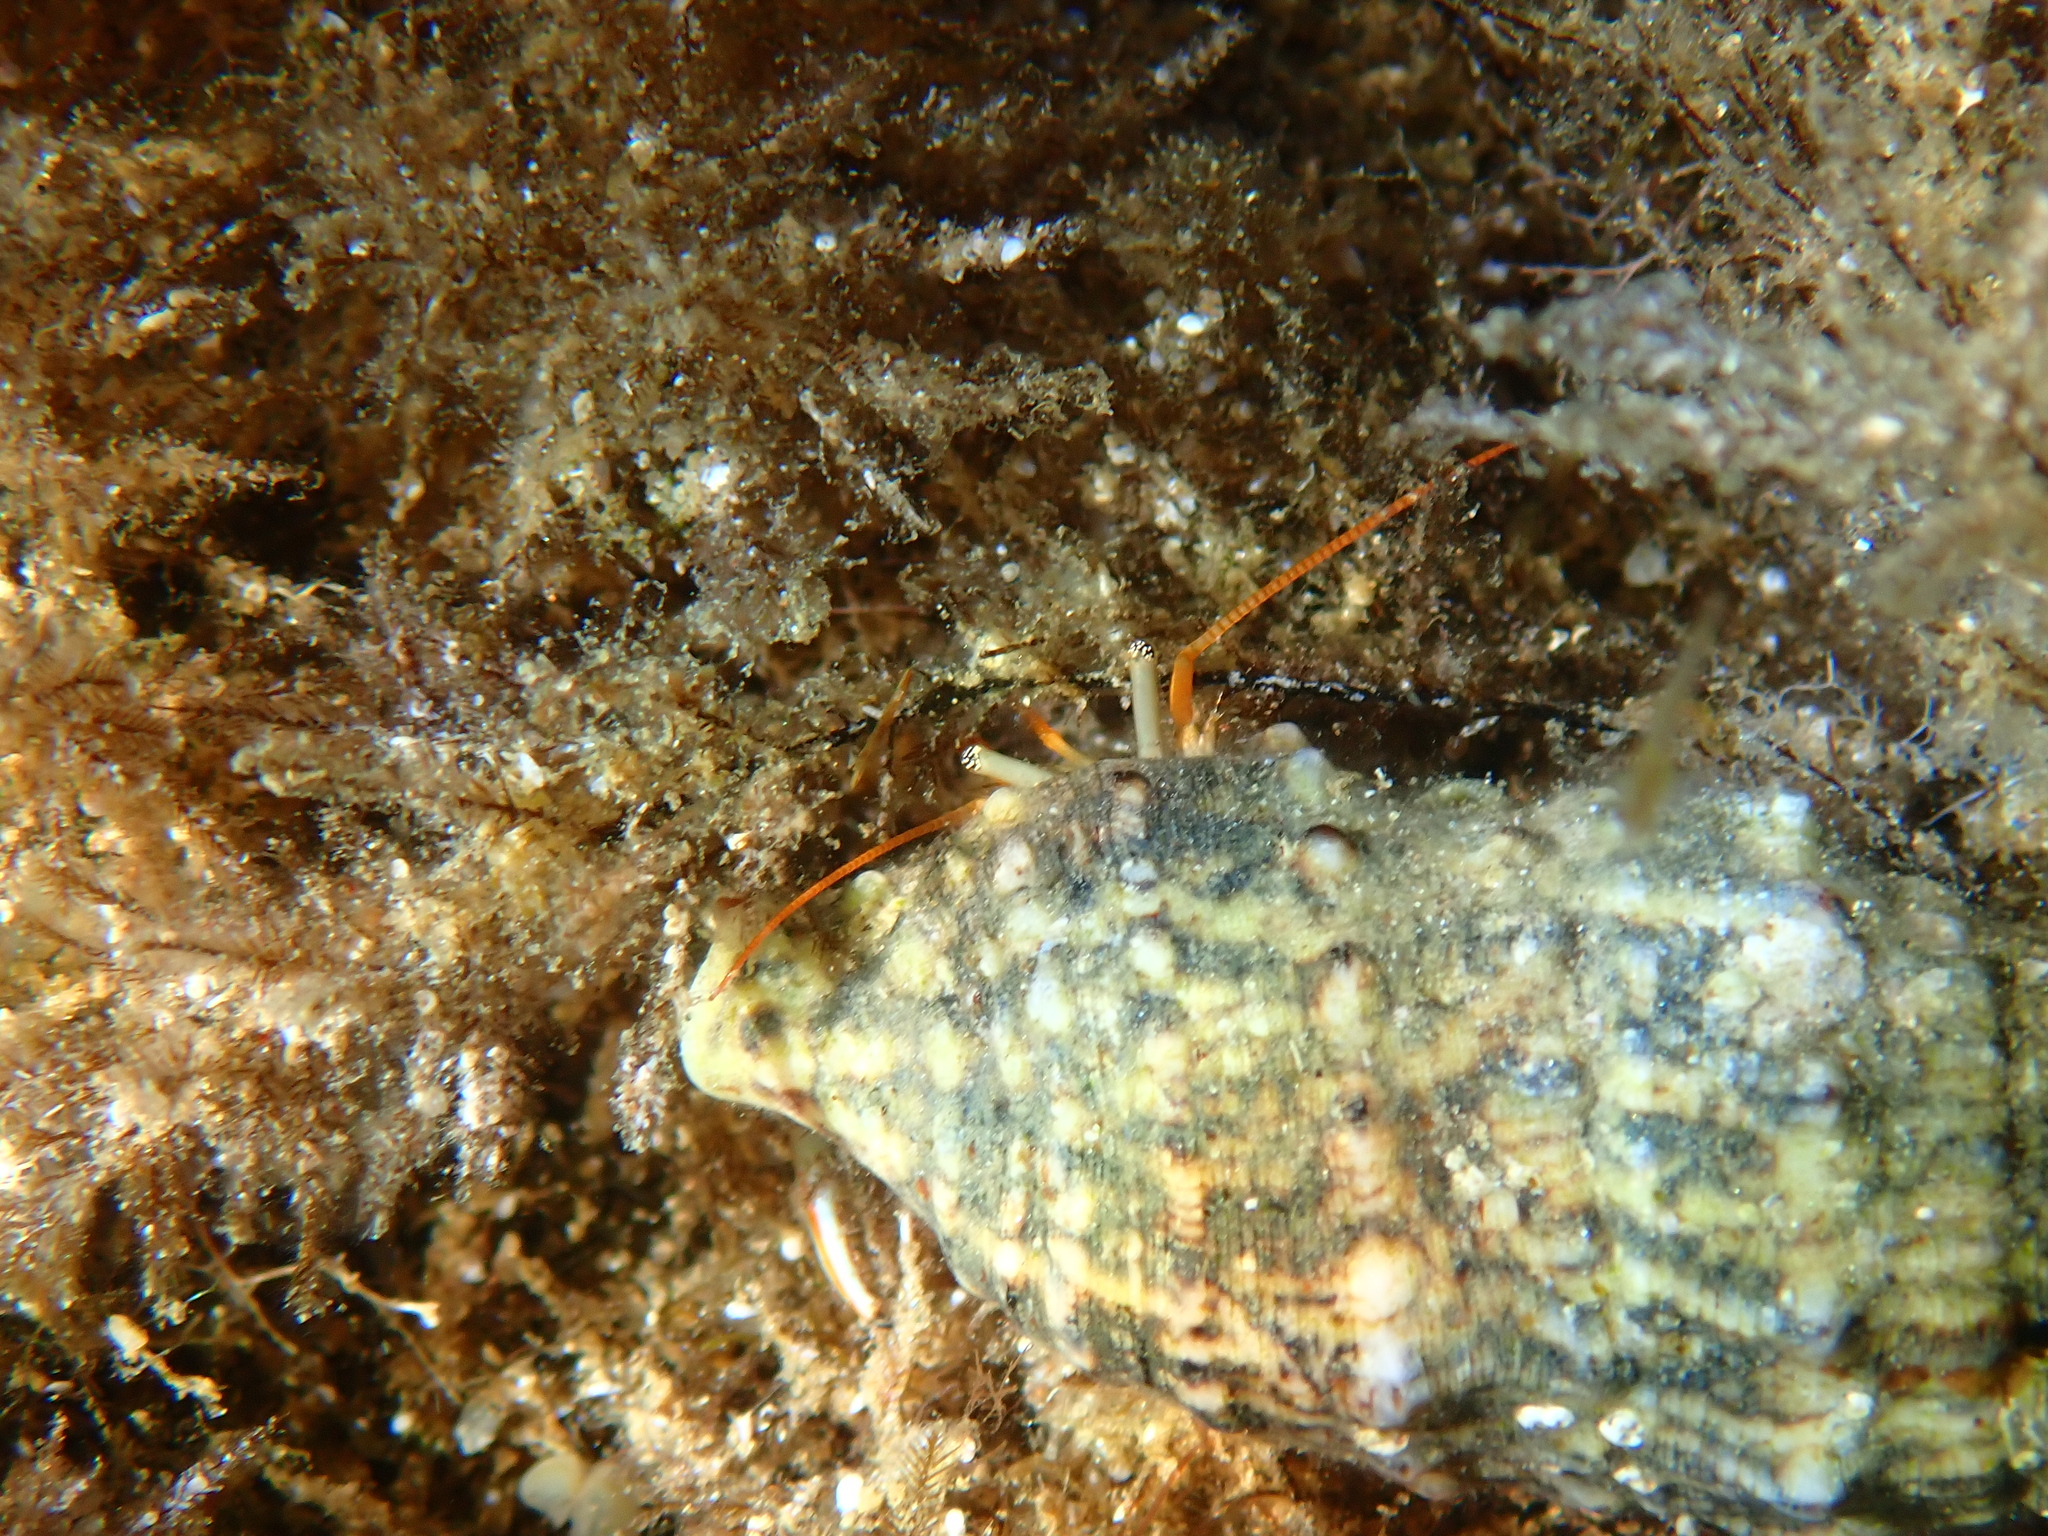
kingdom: Animalia
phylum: Arthropoda
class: Malacostraca
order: Decapoda
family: Diogenidae
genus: Clibanarius
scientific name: Clibanarius erythropus
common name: Hermit crab
